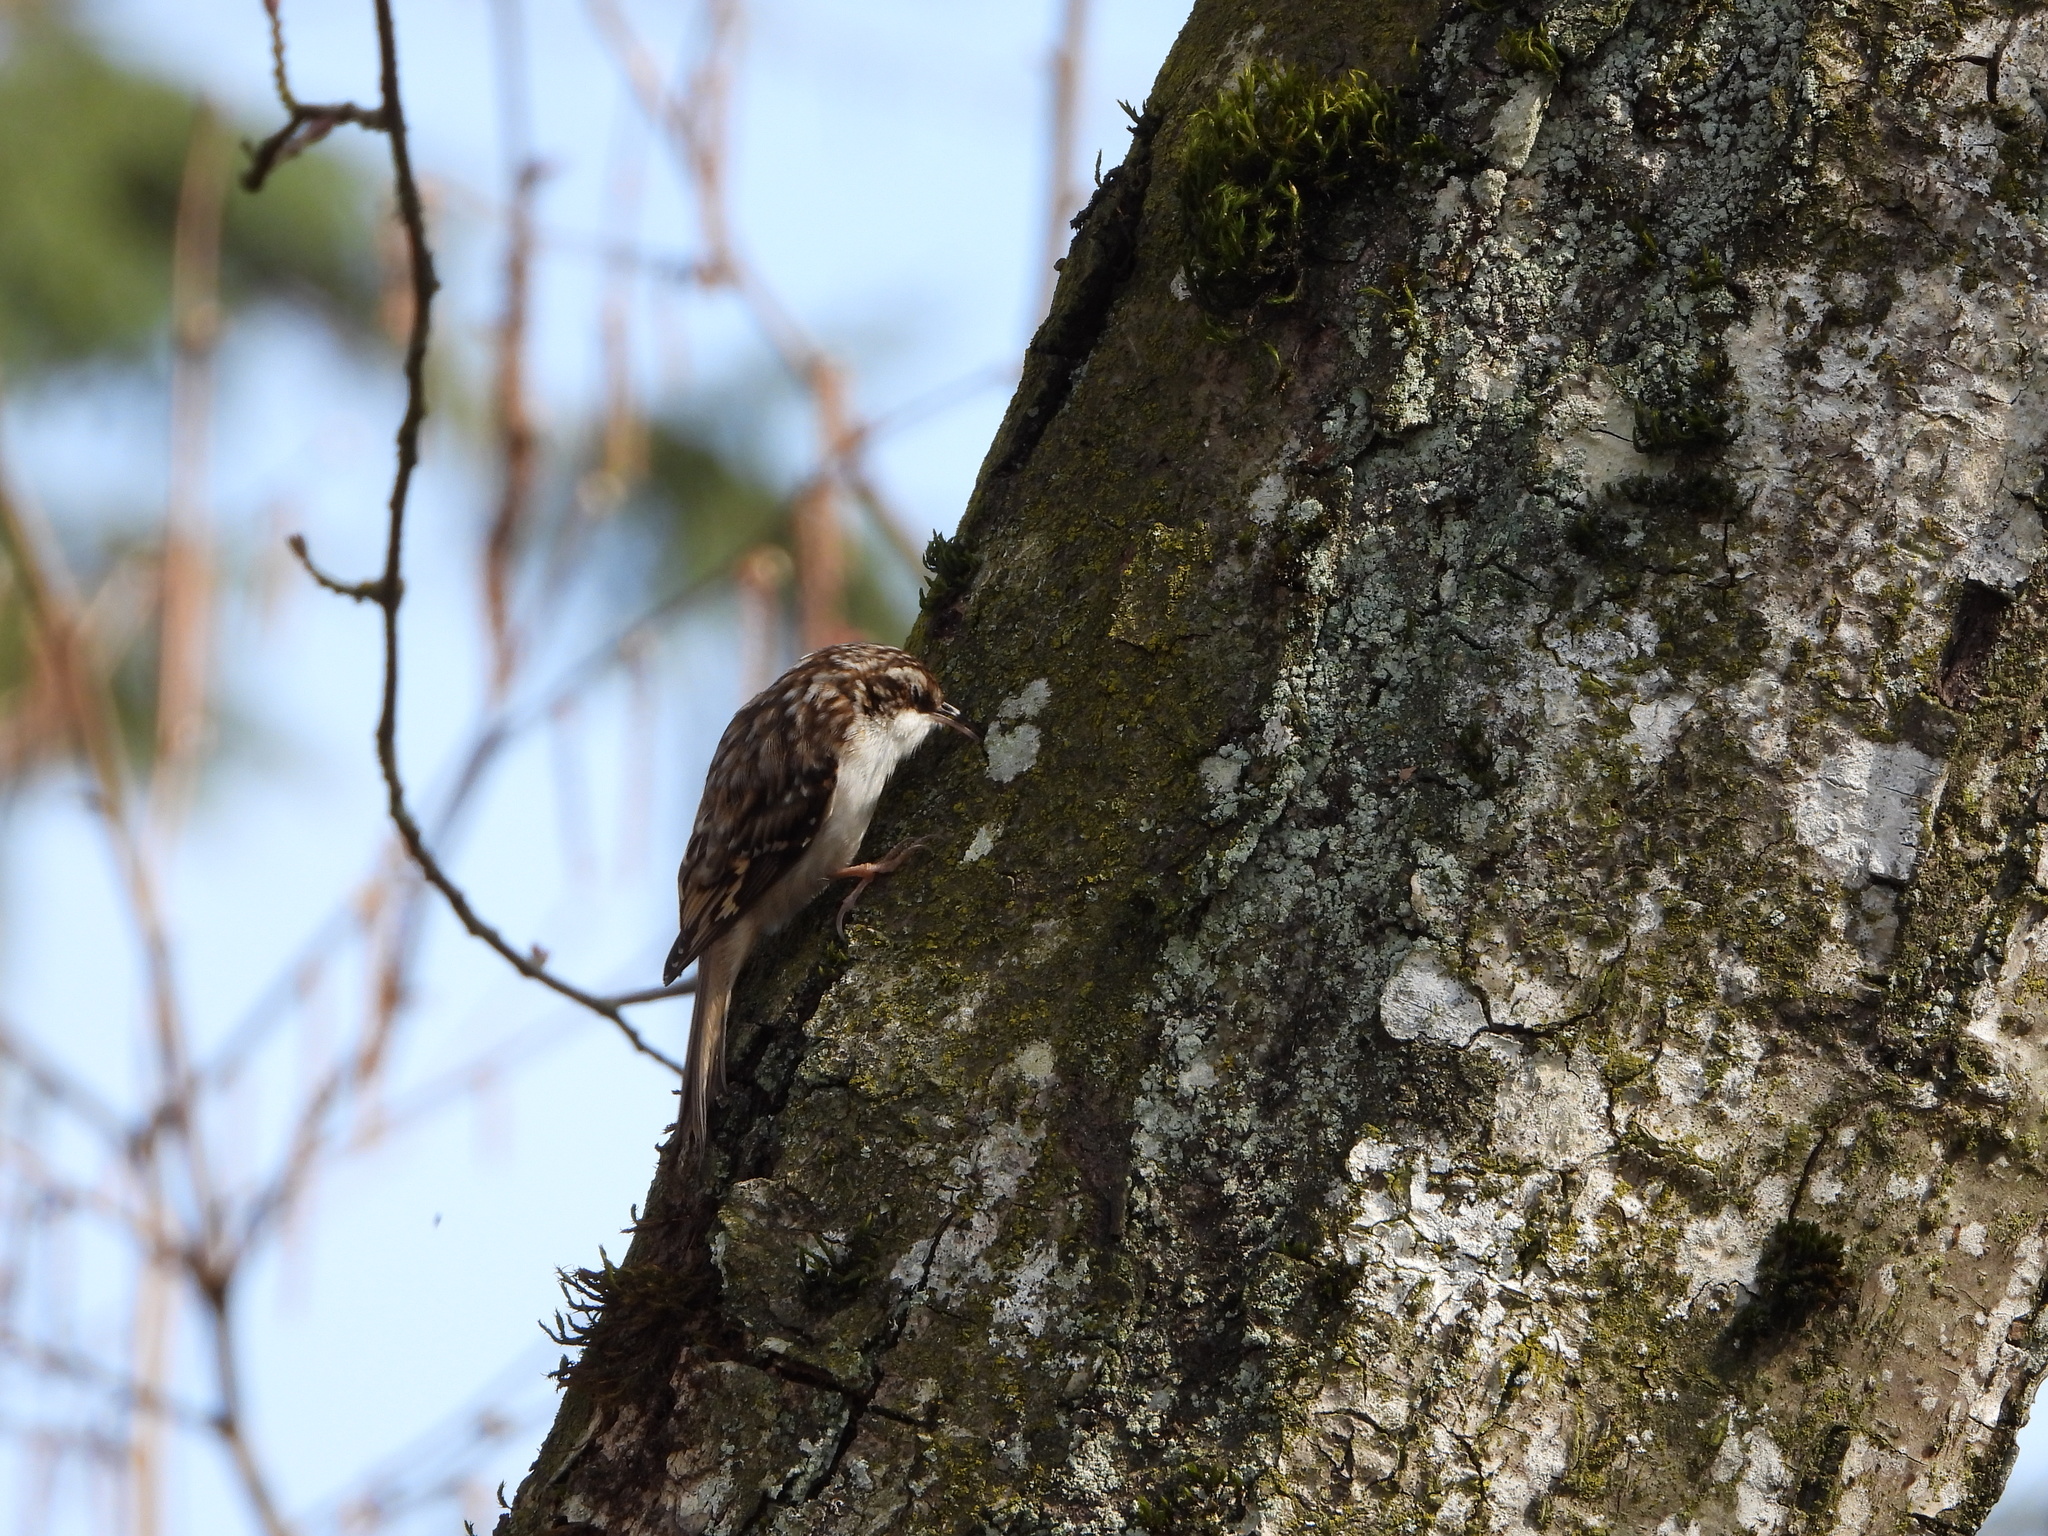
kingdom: Animalia
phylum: Chordata
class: Aves
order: Passeriformes
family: Certhiidae
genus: Certhia
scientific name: Certhia americana
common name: Brown creeper
